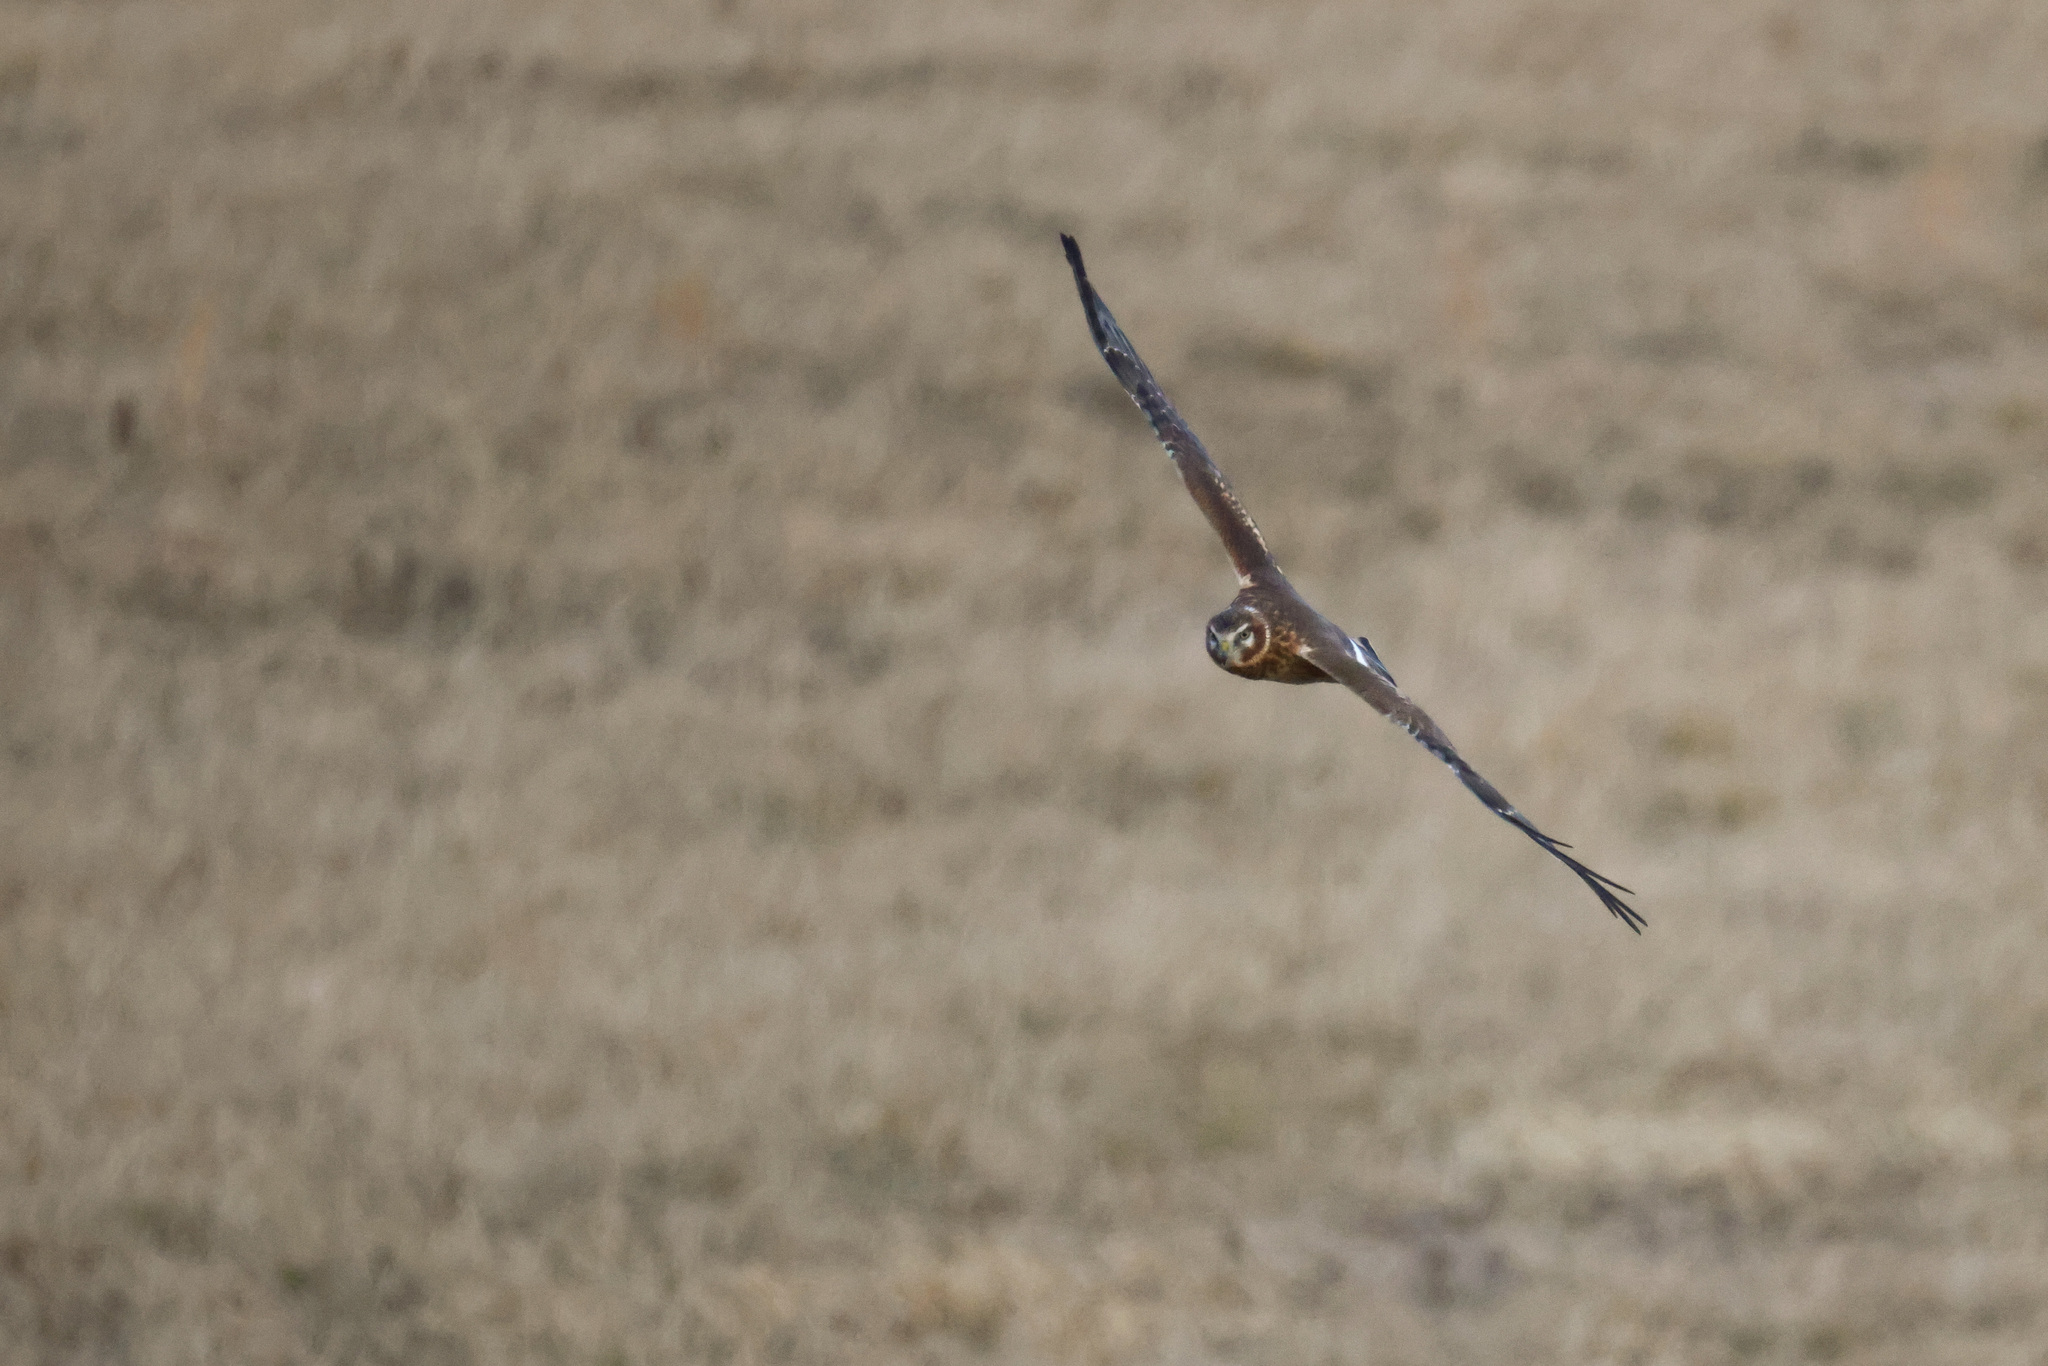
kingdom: Animalia
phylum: Chordata
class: Aves
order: Accipitriformes
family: Accipitridae
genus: Circus
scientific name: Circus cyaneus
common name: Hen harrier
